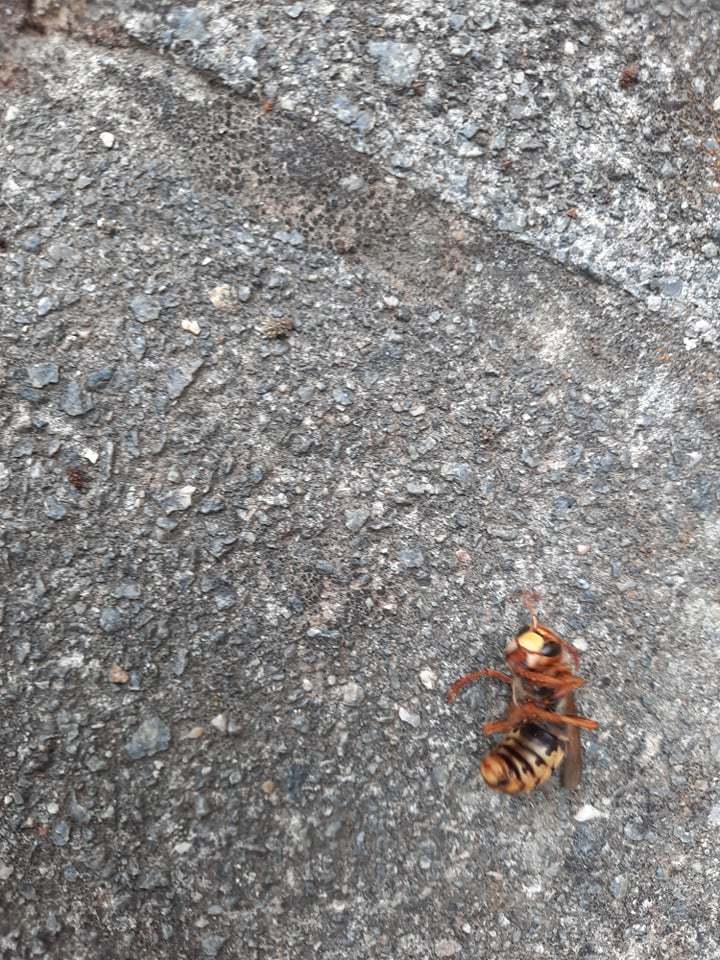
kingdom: Animalia
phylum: Arthropoda
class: Insecta
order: Hymenoptera
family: Vespidae
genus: Vespa
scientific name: Vespa crabro
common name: Hornet
